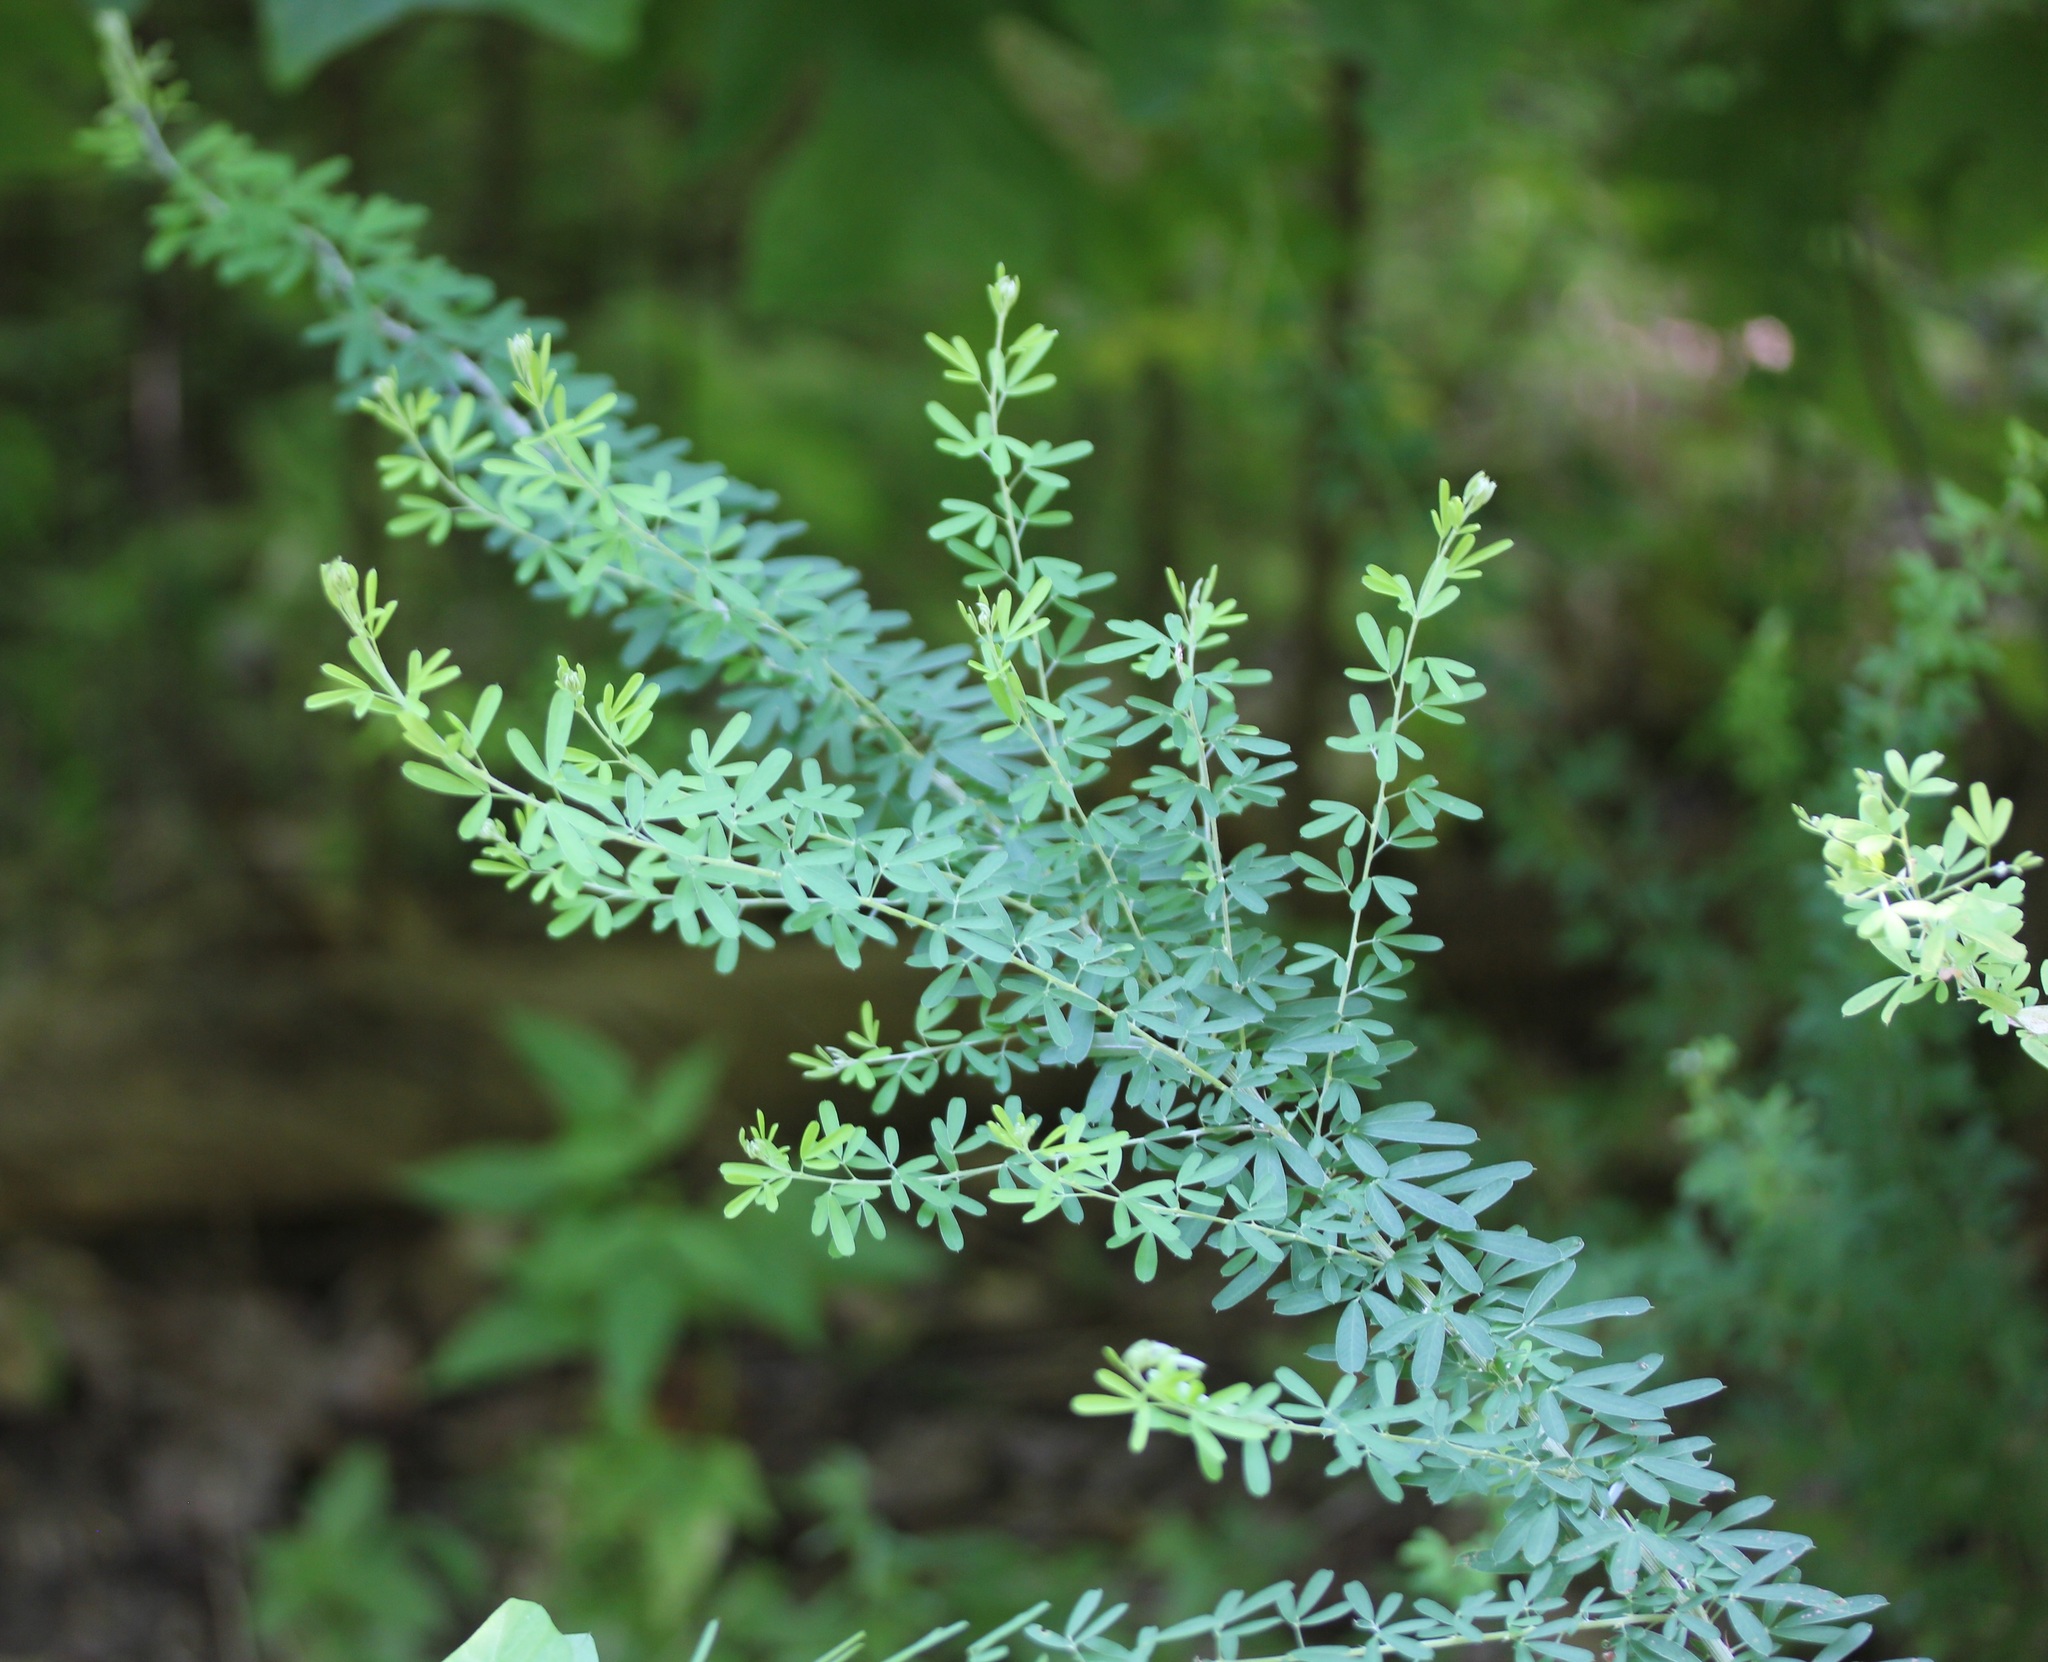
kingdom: Plantae
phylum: Tracheophyta
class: Magnoliopsida
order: Fabales
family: Fabaceae
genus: Lespedeza
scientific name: Lespedeza cuneata
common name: Chinese bush-clover
